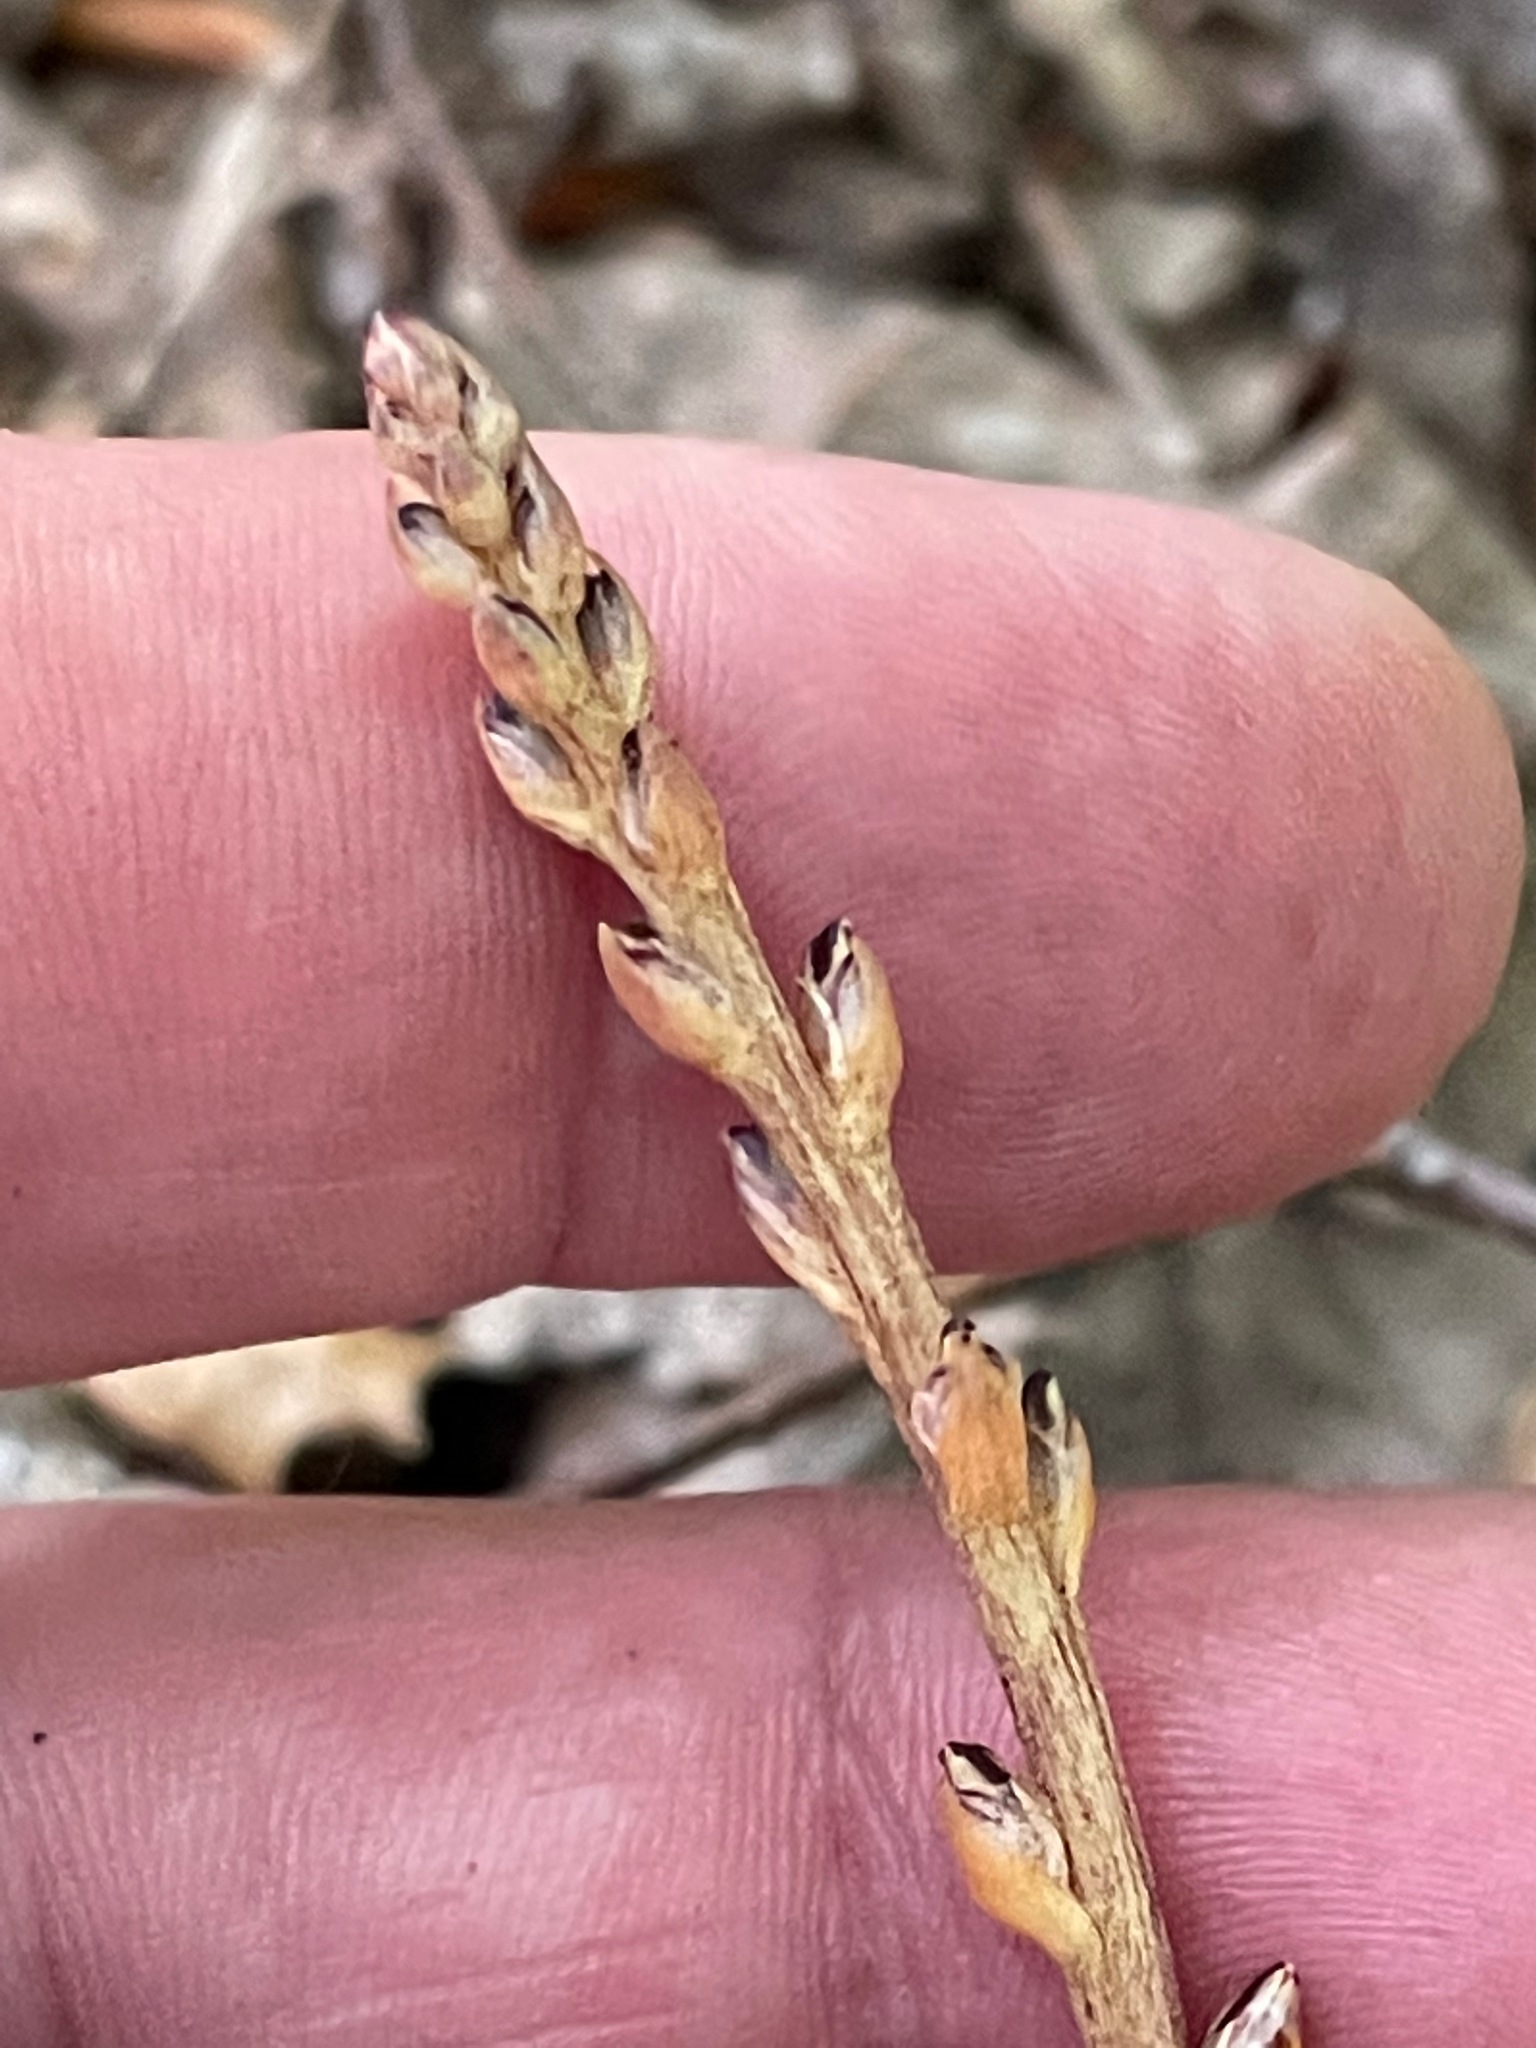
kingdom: Plantae
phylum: Tracheophyta
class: Magnoliopsida
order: Lamiales
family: Orobanchaceae
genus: Epifagus
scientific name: Epifagus virginiana
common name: Beechdrops
